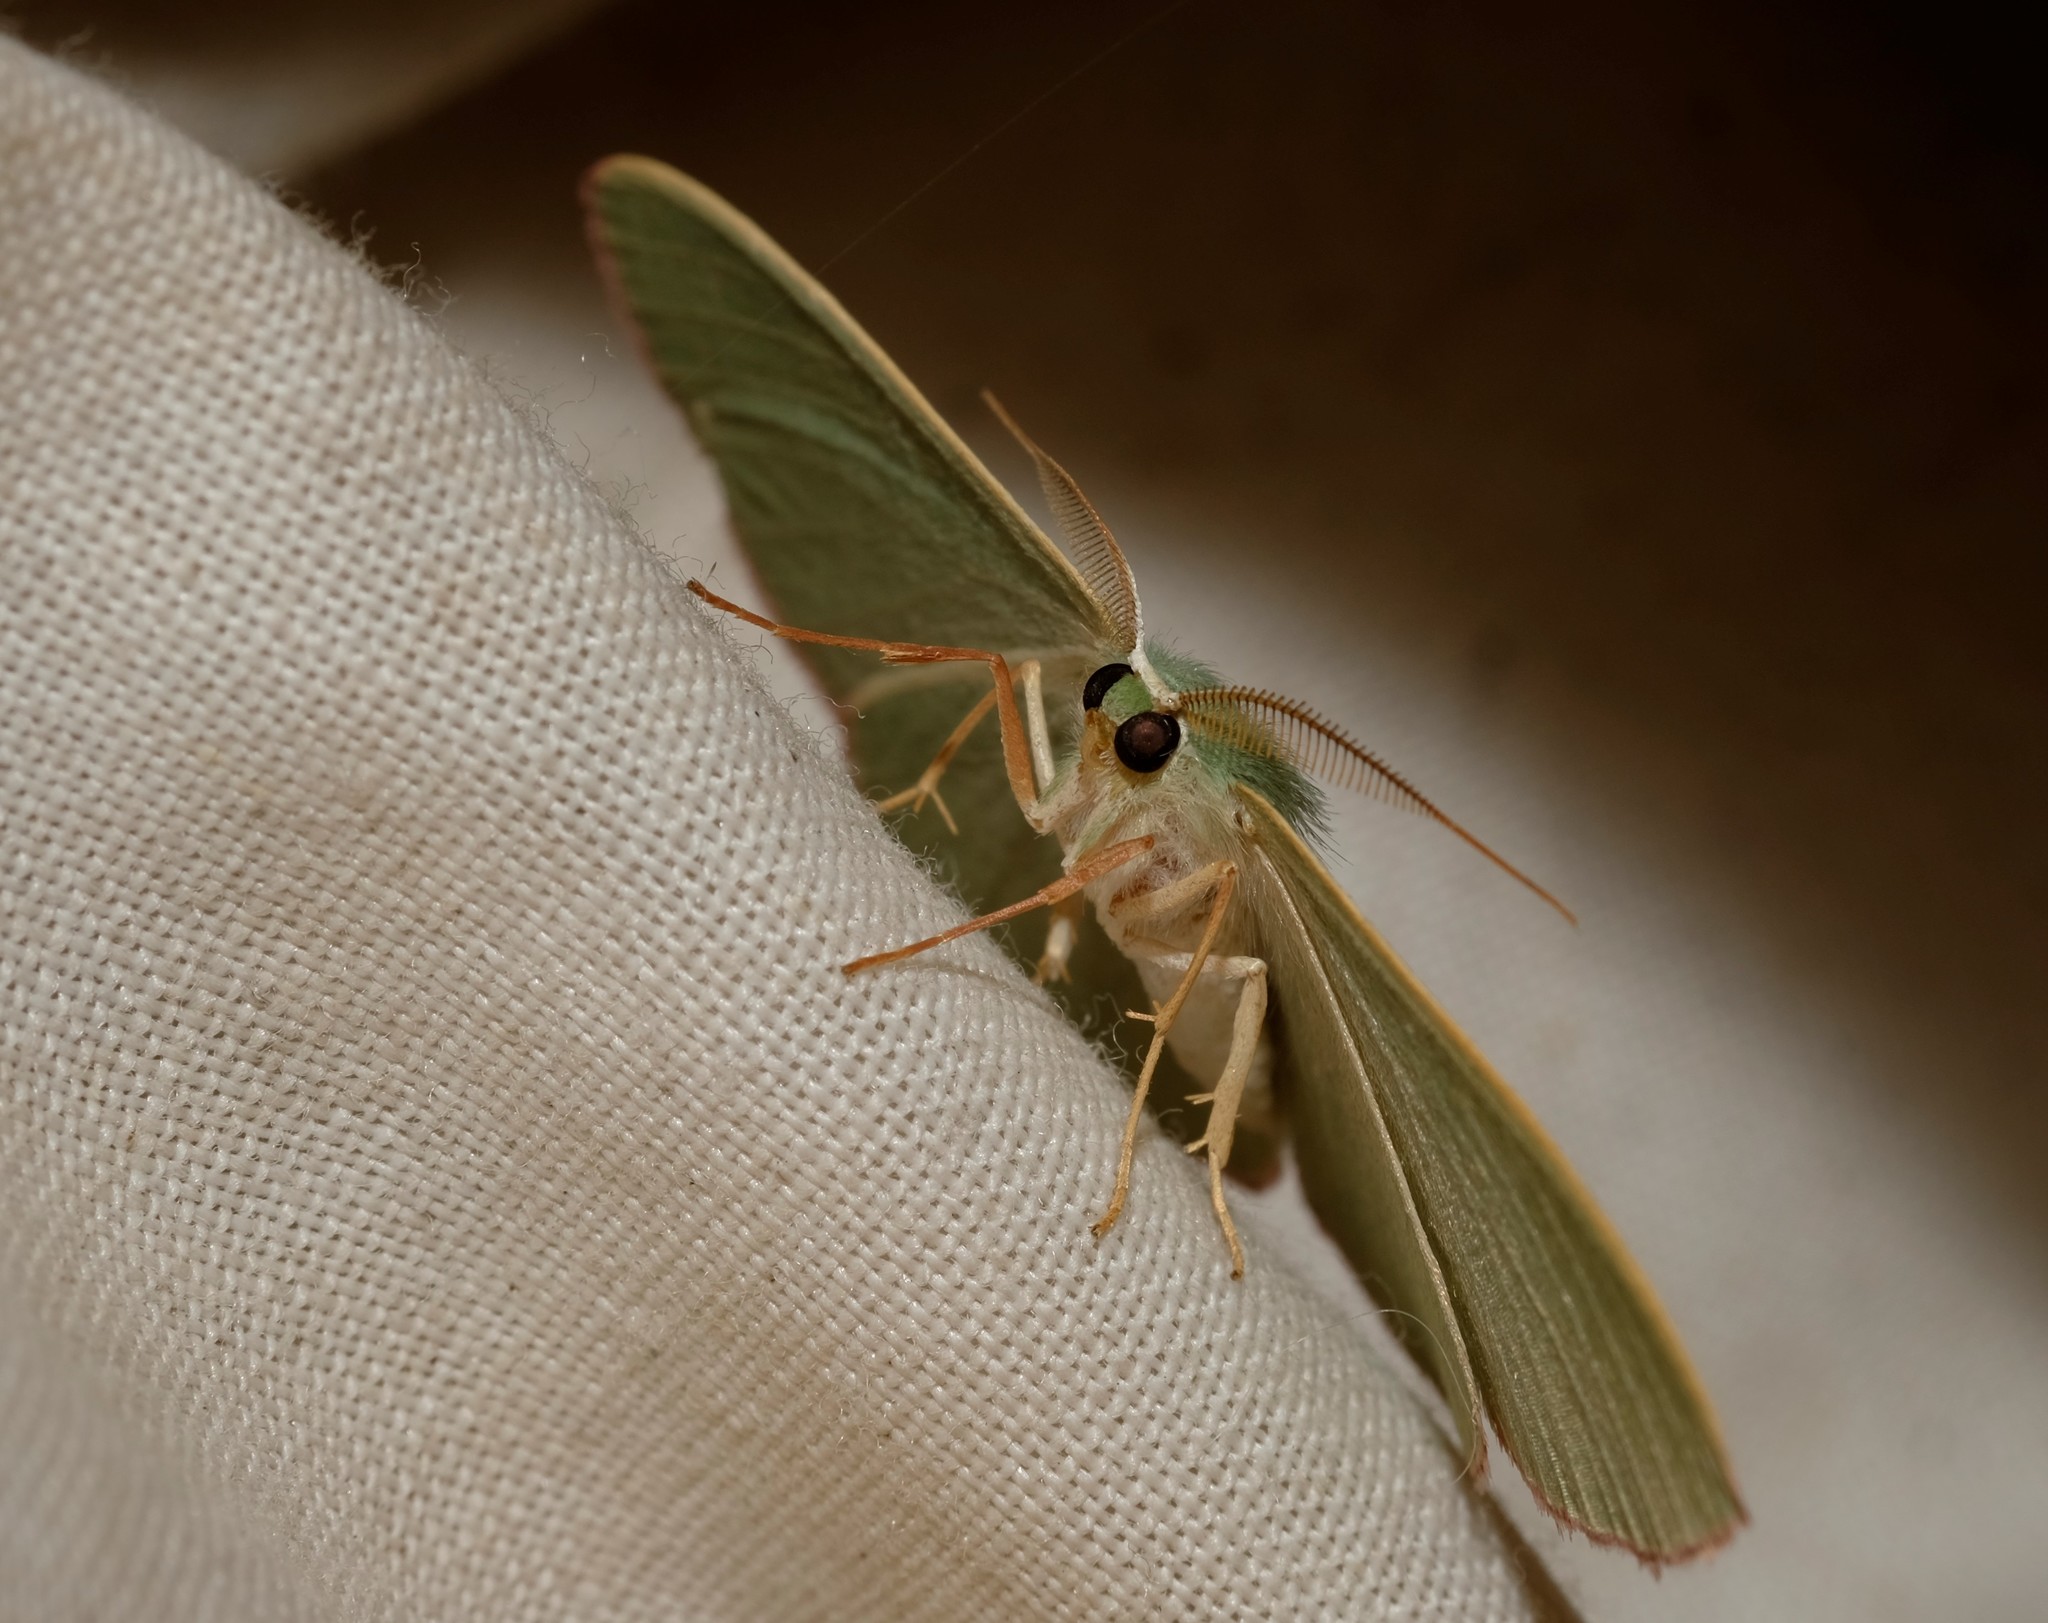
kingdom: Animalia
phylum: Arthropoda
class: Insecta
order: Lepidoptera
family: Geometridae
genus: Prasinocyma
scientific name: Prasinocyma semicrocea
